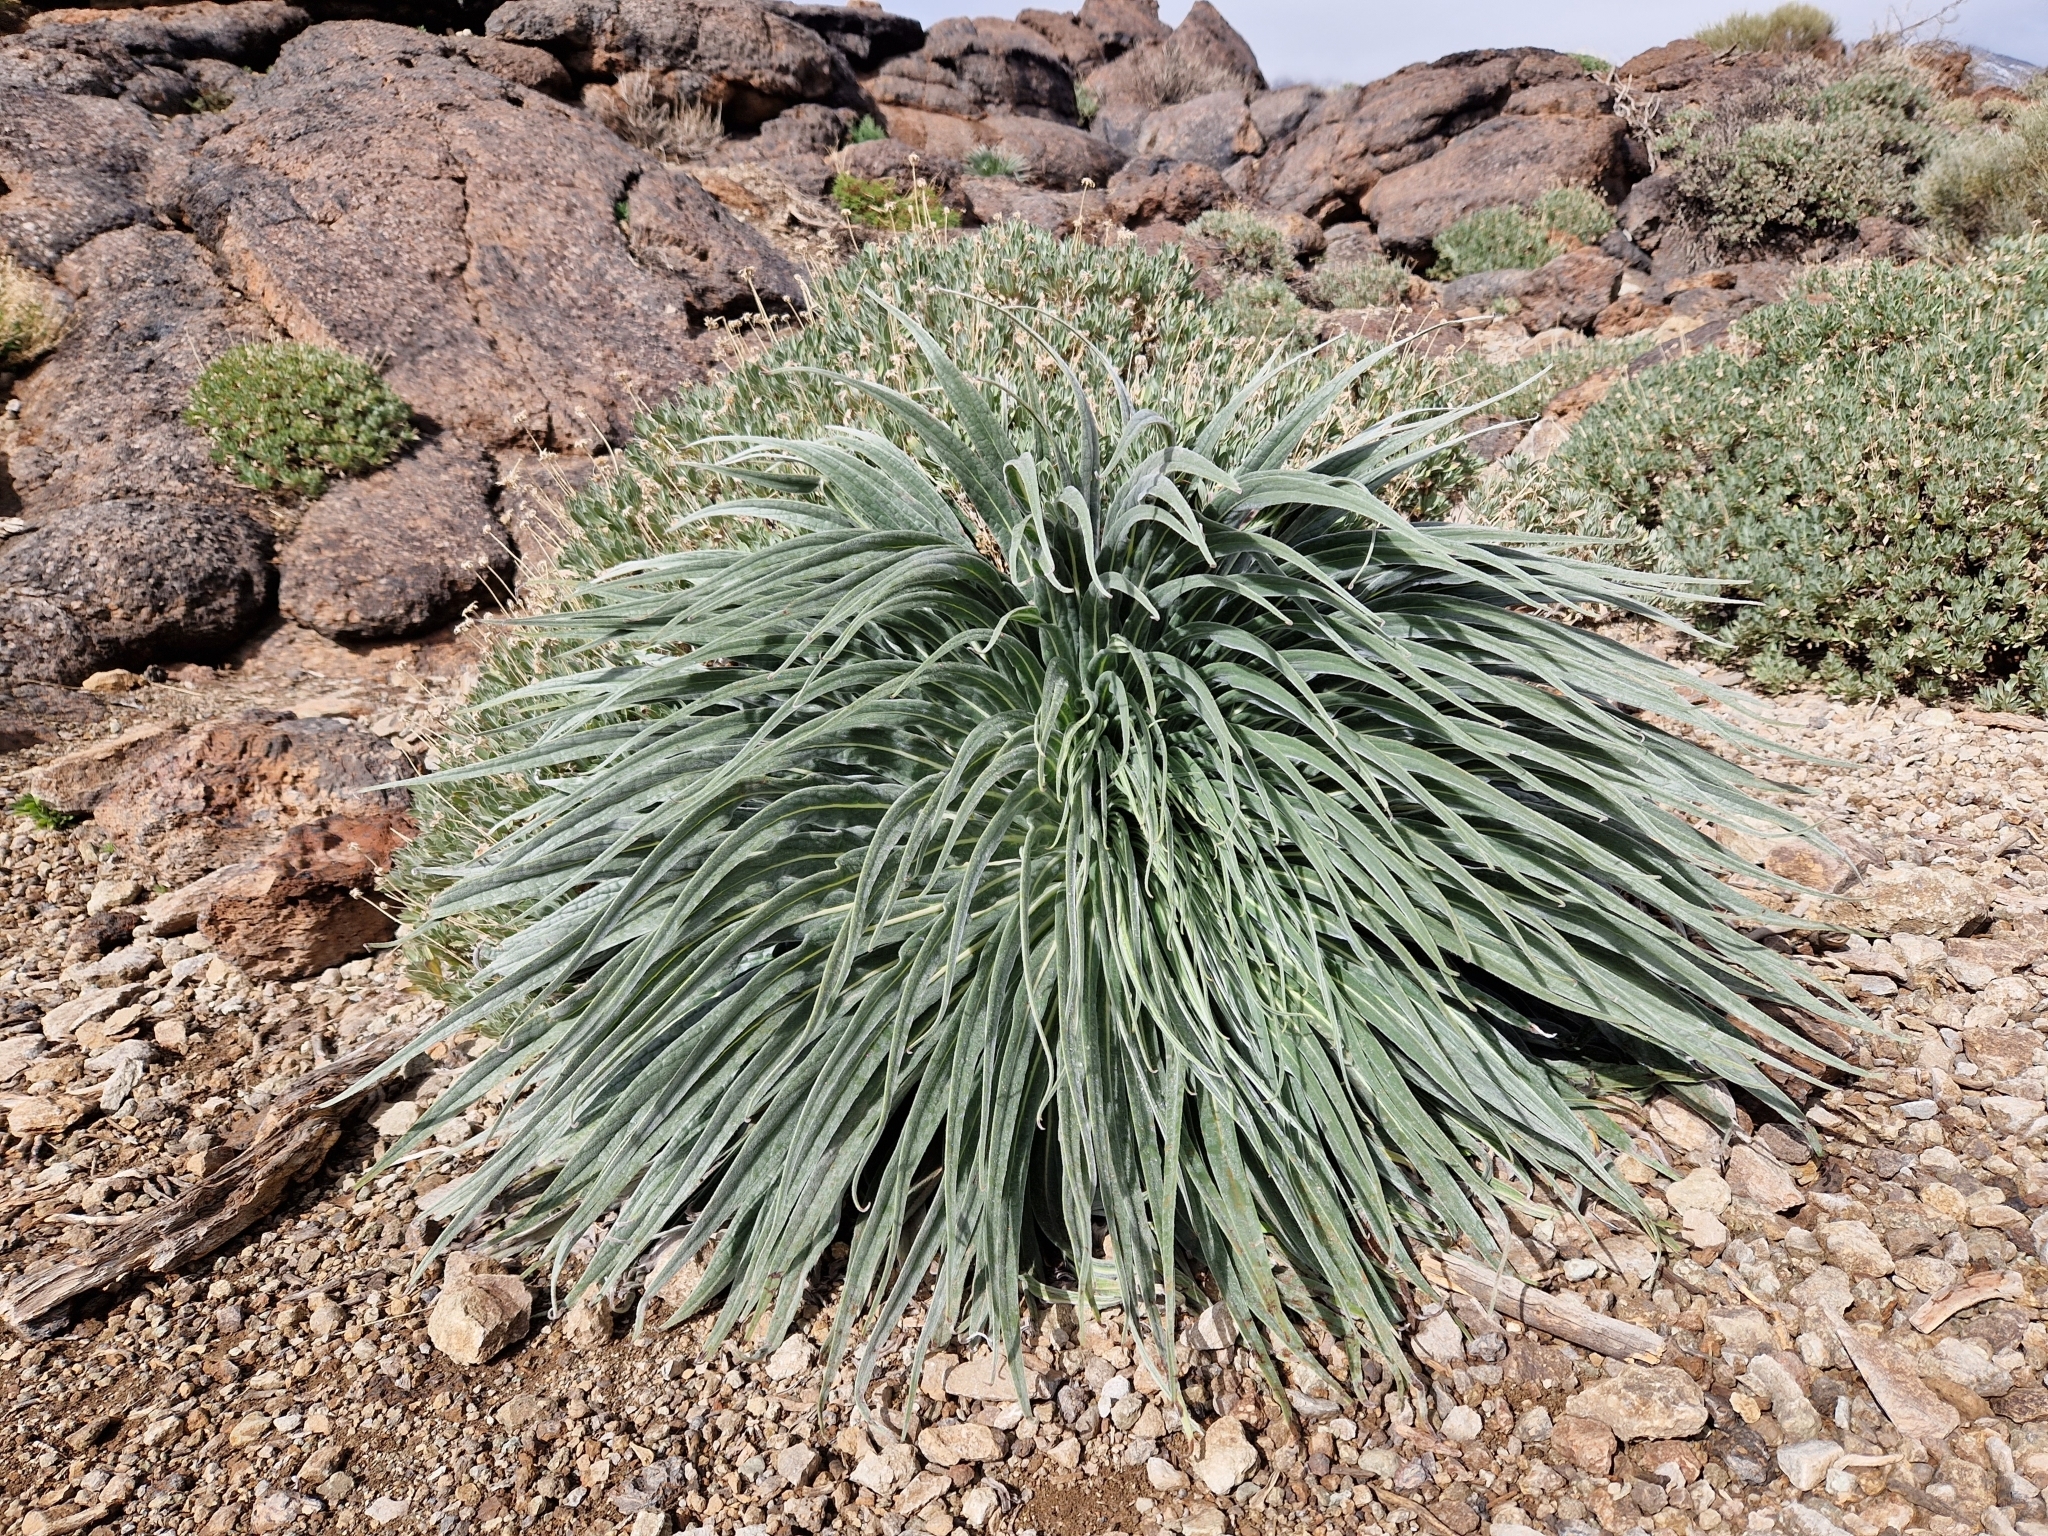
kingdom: Plantae
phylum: Tracheophyta
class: Magnoliopsida
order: Boraginales
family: Boraginaceae
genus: Echium
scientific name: Echium wildpretii
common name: Tower-of-jewels
